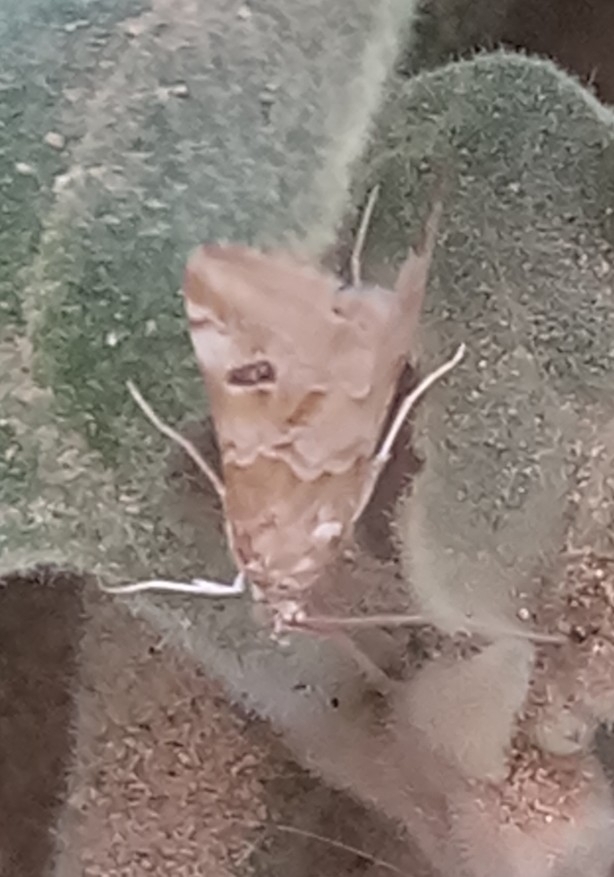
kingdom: Animalia
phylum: Arthropoda
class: Insecta
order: Lepidoptera
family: Crambidae
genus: Hellula
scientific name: Hellula undalis
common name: Cabbage webworm
